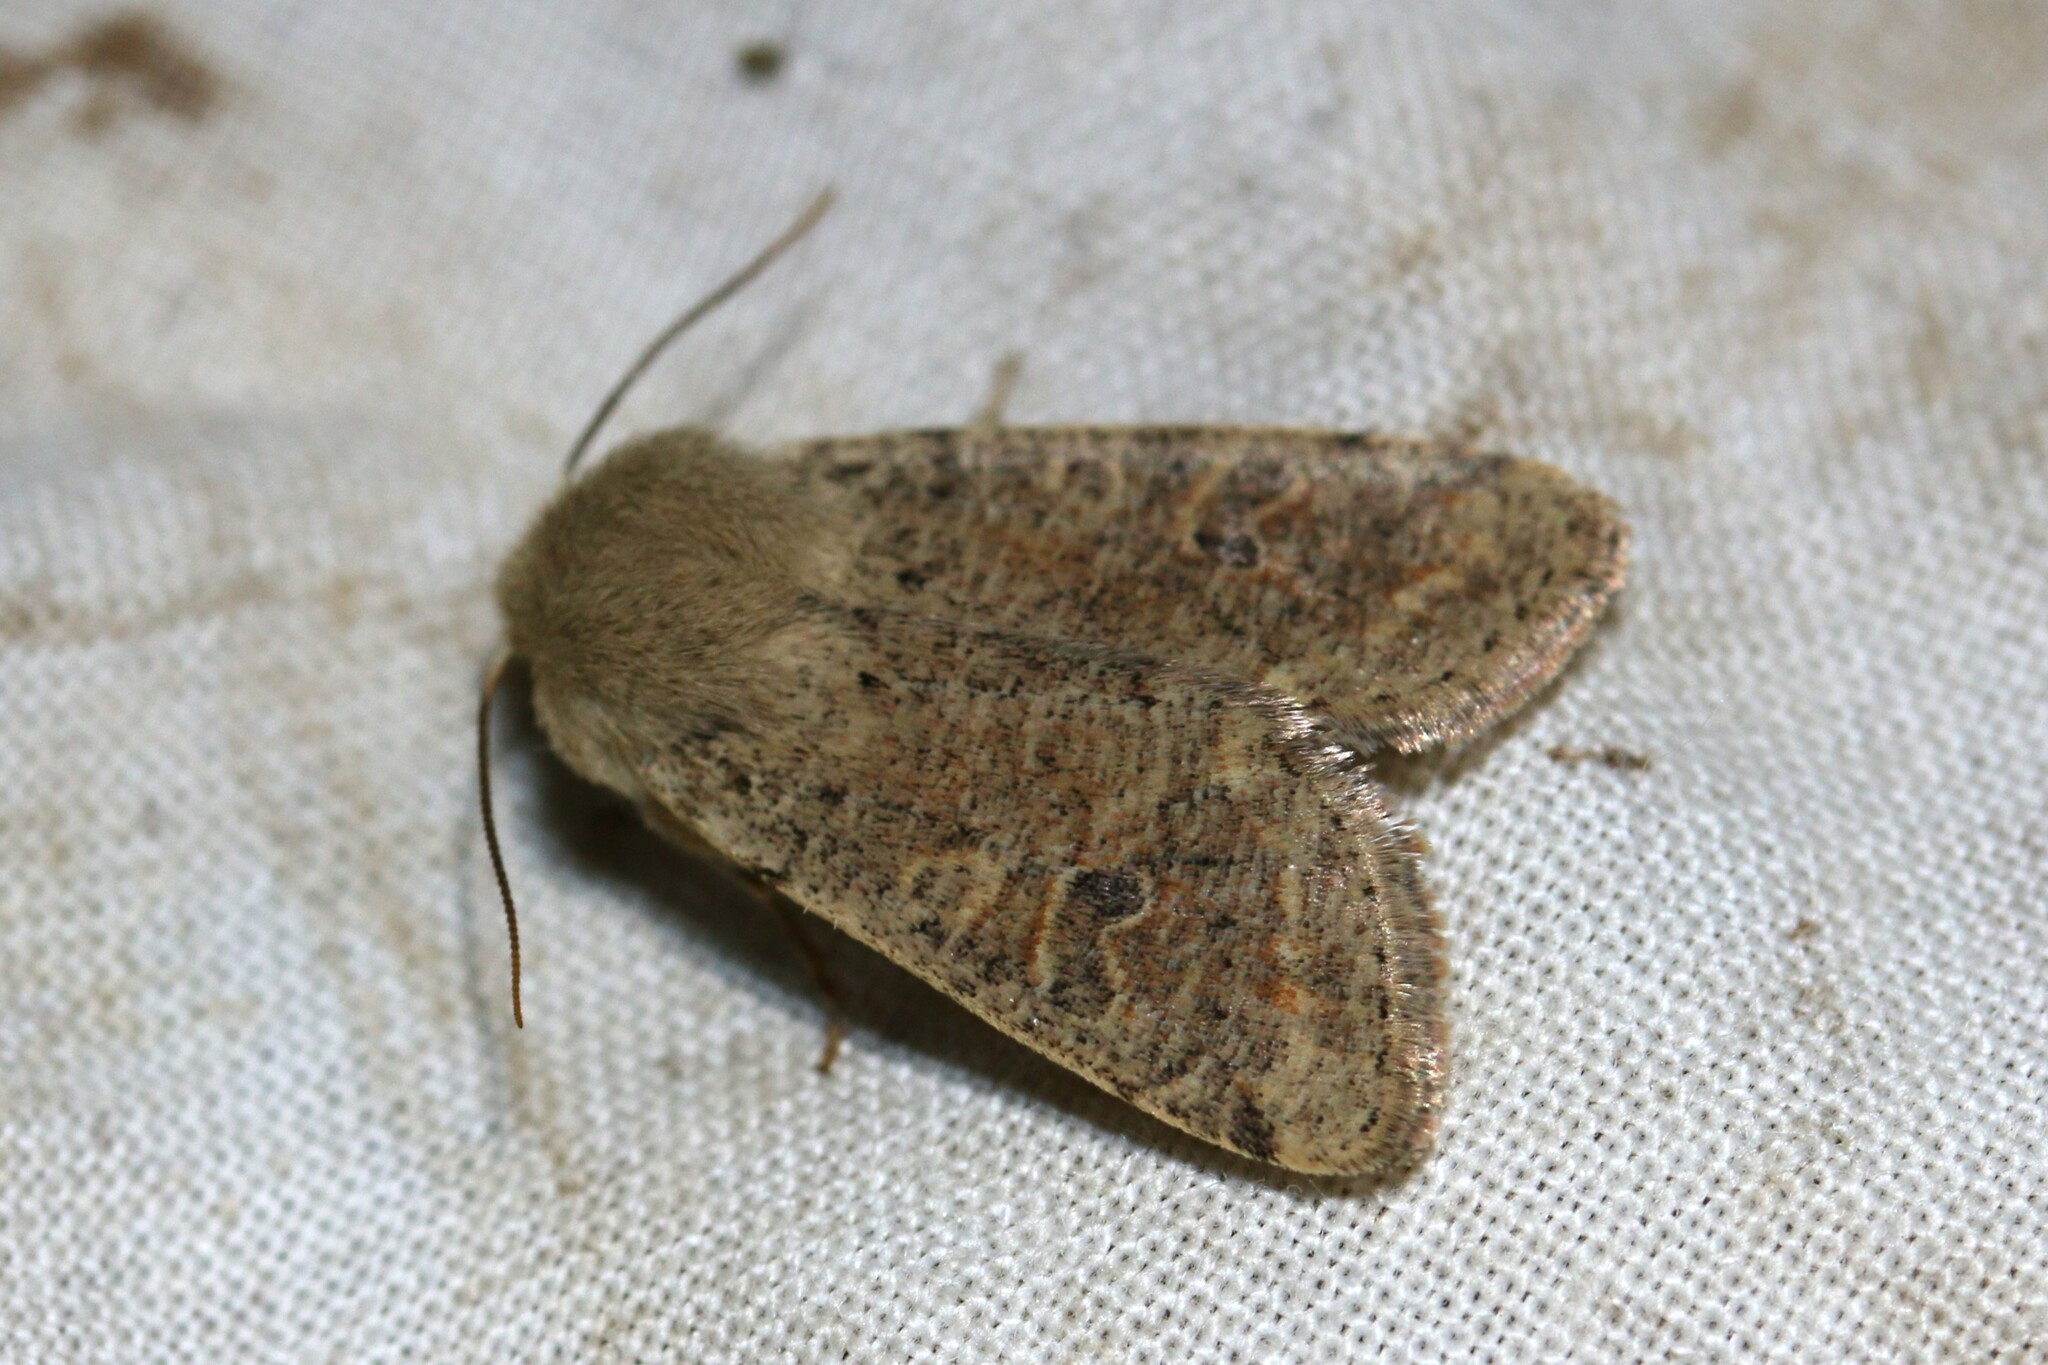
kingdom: Animalia
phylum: Arthropoda
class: Insecta
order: Lepidoptera
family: Noctuidae
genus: Orthosia
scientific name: Orthosia cruda
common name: Small quaker
